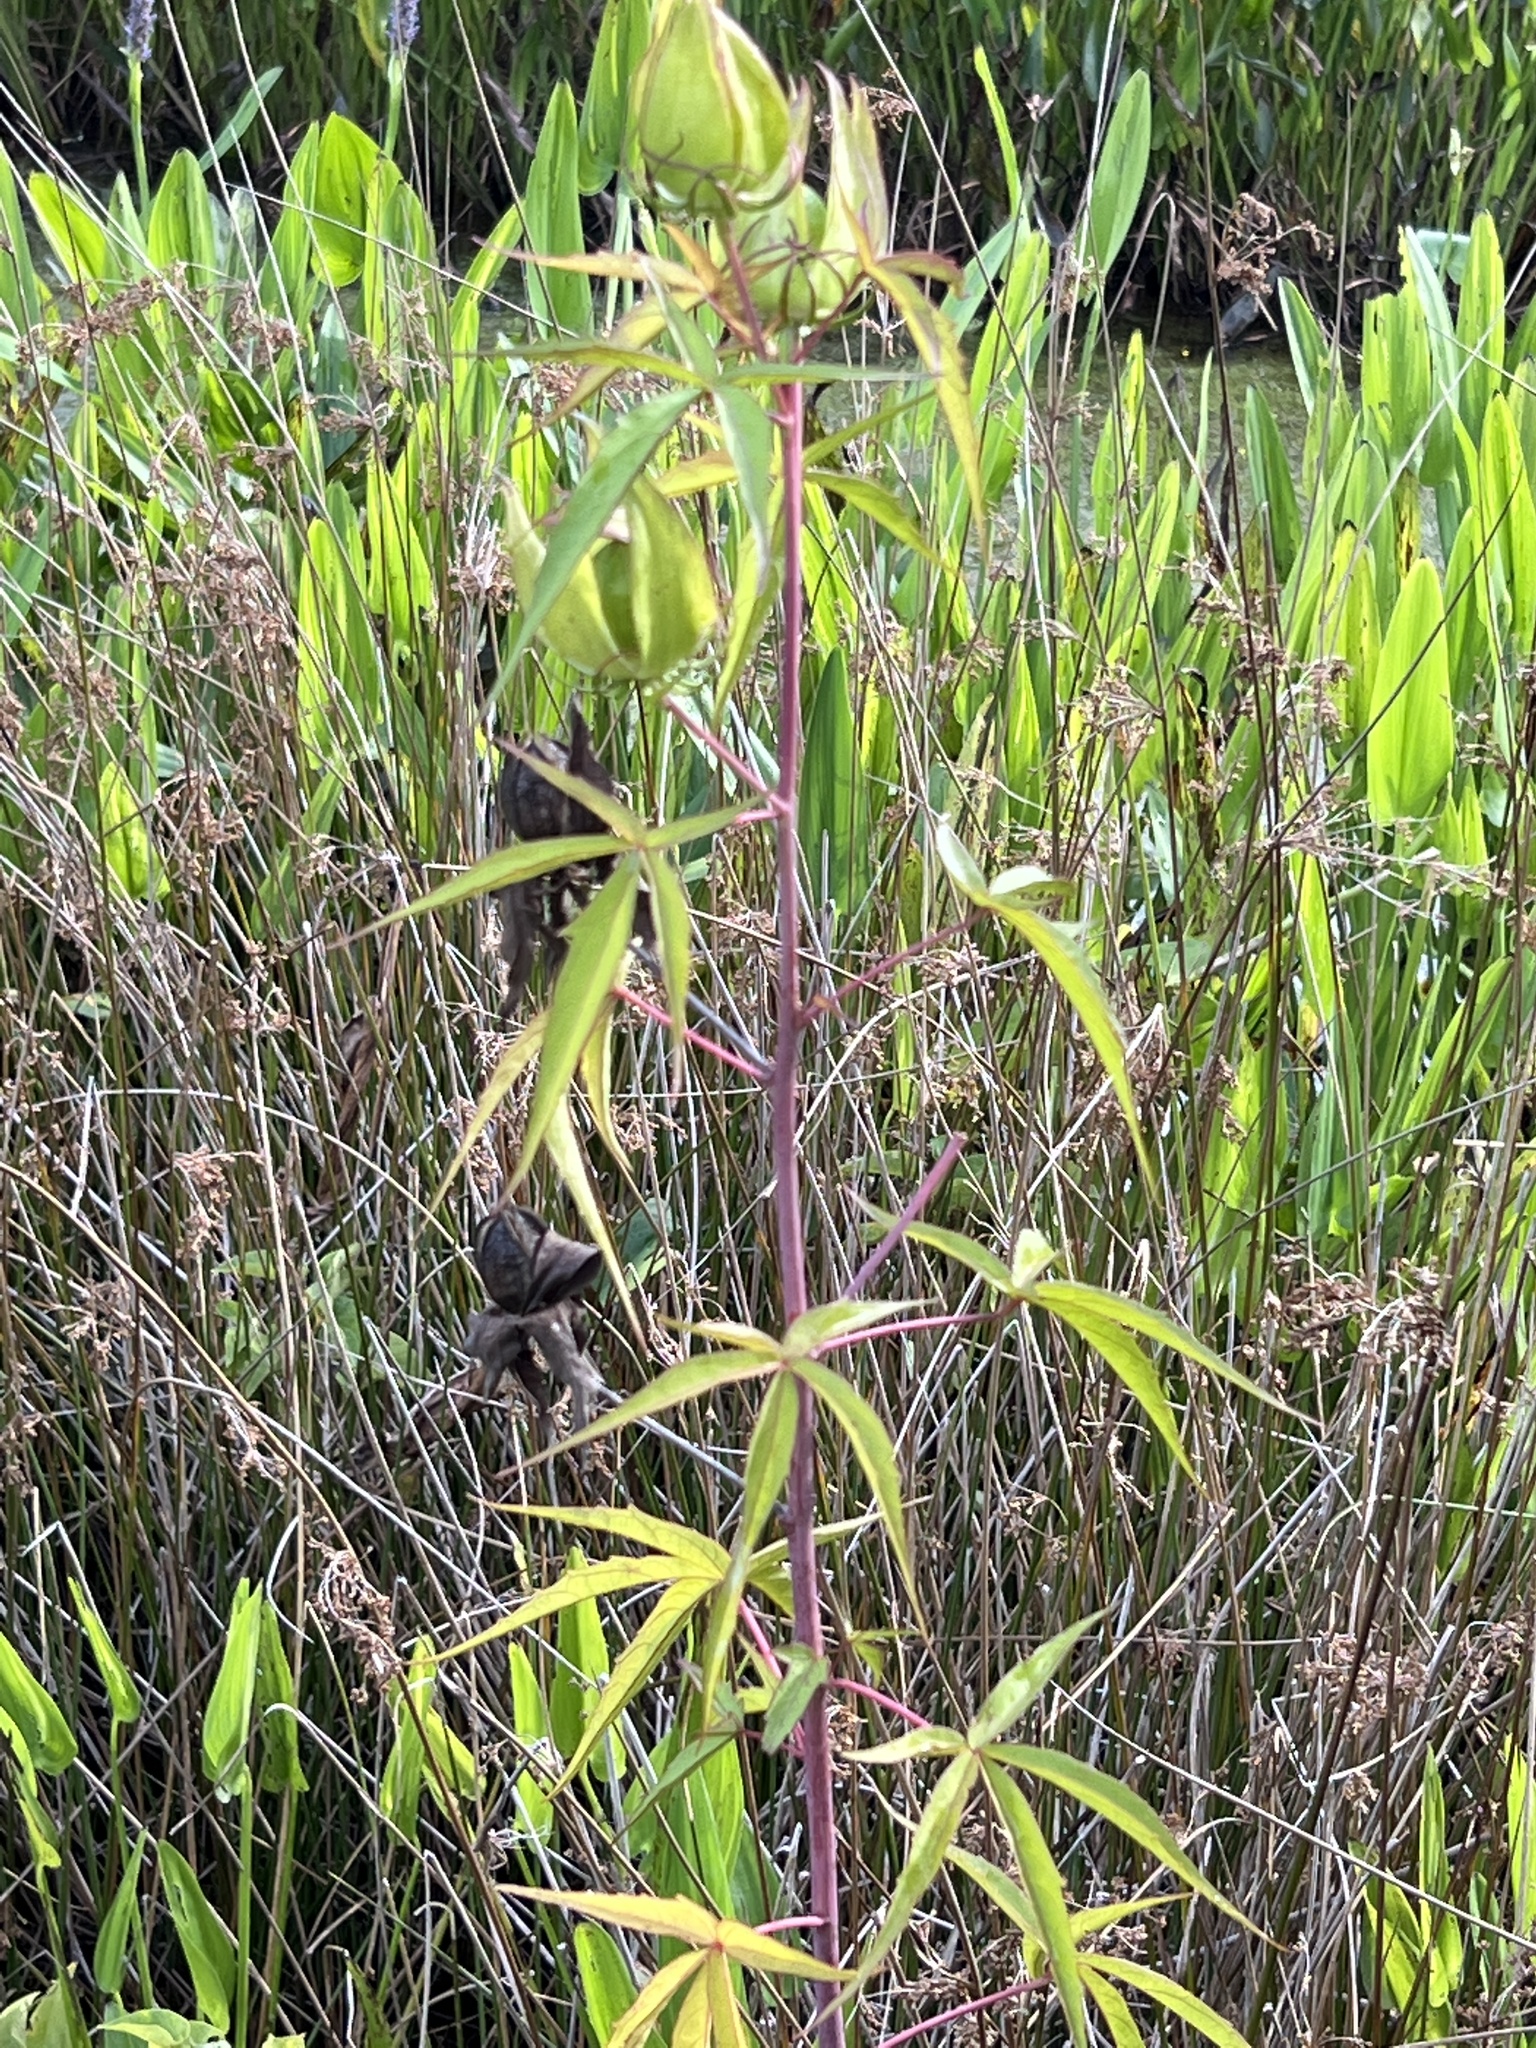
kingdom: Plantae
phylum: Tracheophyta
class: Magnoliopsida
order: Malvales
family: Malvaceae
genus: Hibiscus
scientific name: Hibiscus coccineus
